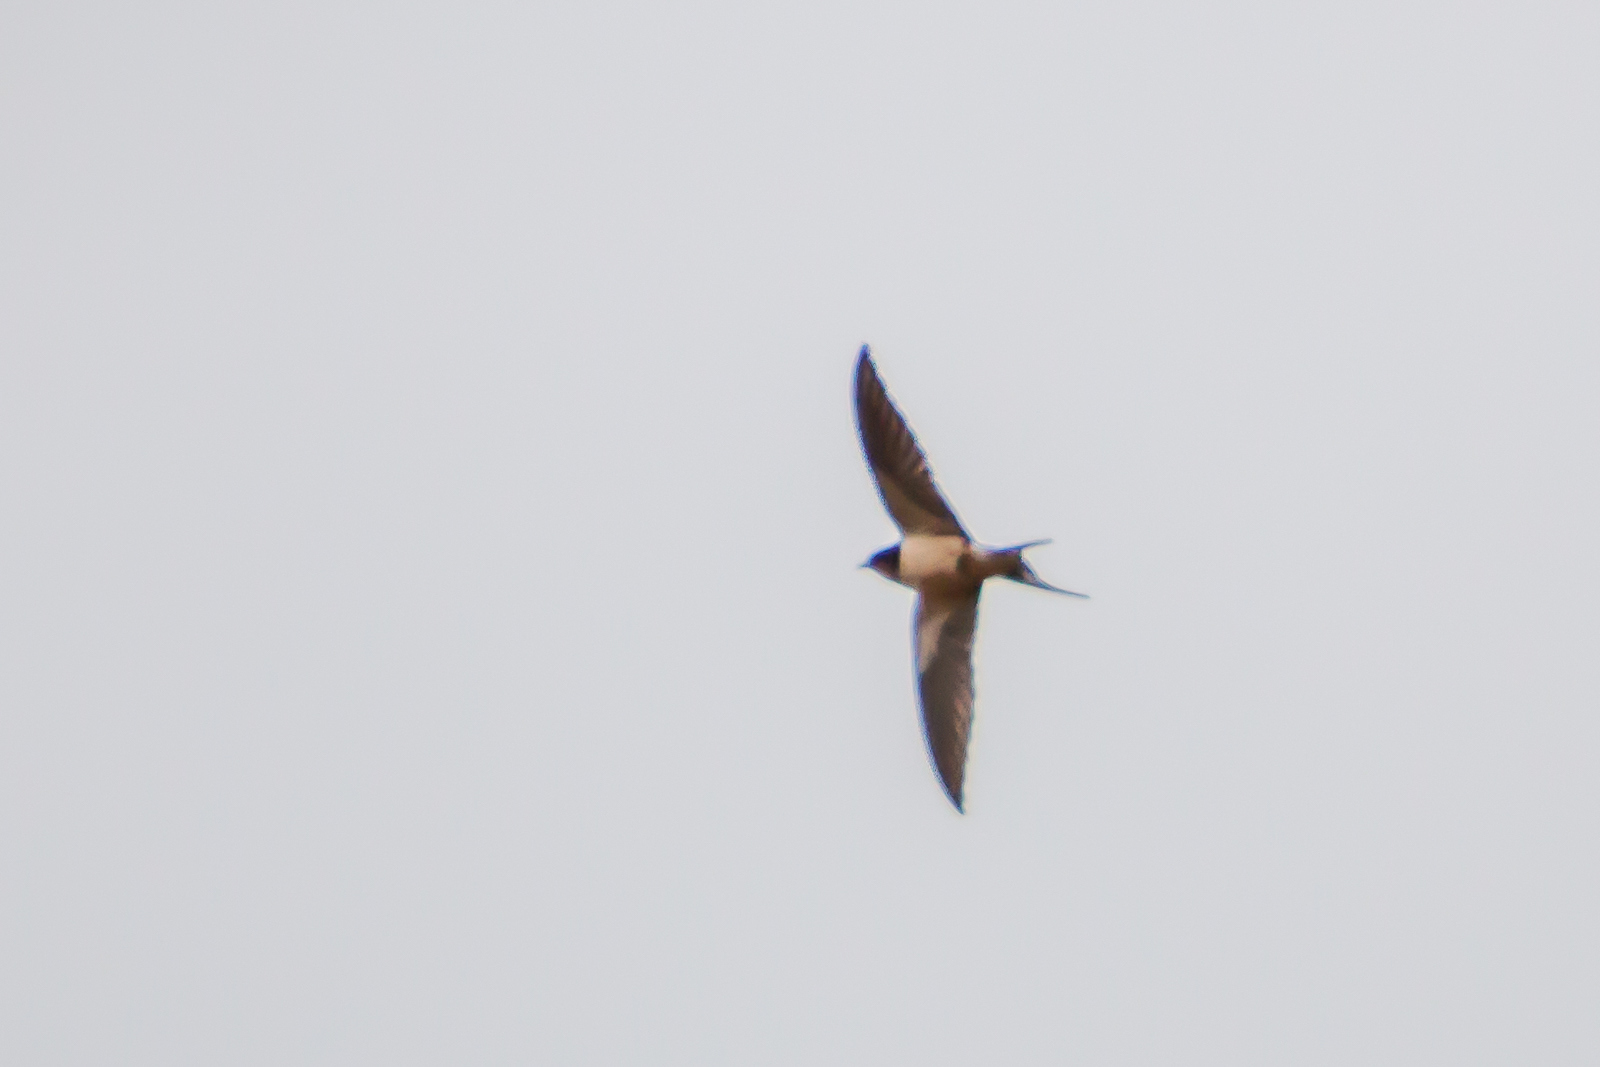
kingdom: Animalia
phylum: Chordata
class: Aves
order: Passeriformes
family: Hirundinidae
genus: Hirundo
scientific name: Hirundo rustica
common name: Barn swallow
